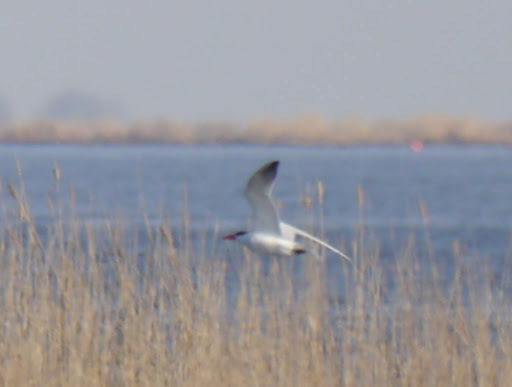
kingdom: Animalia
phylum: Chordata
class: Aves
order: Charadriiformes
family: Laridae
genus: Hydroprogne
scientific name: Hydroprogne caspia
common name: Caspian tern
